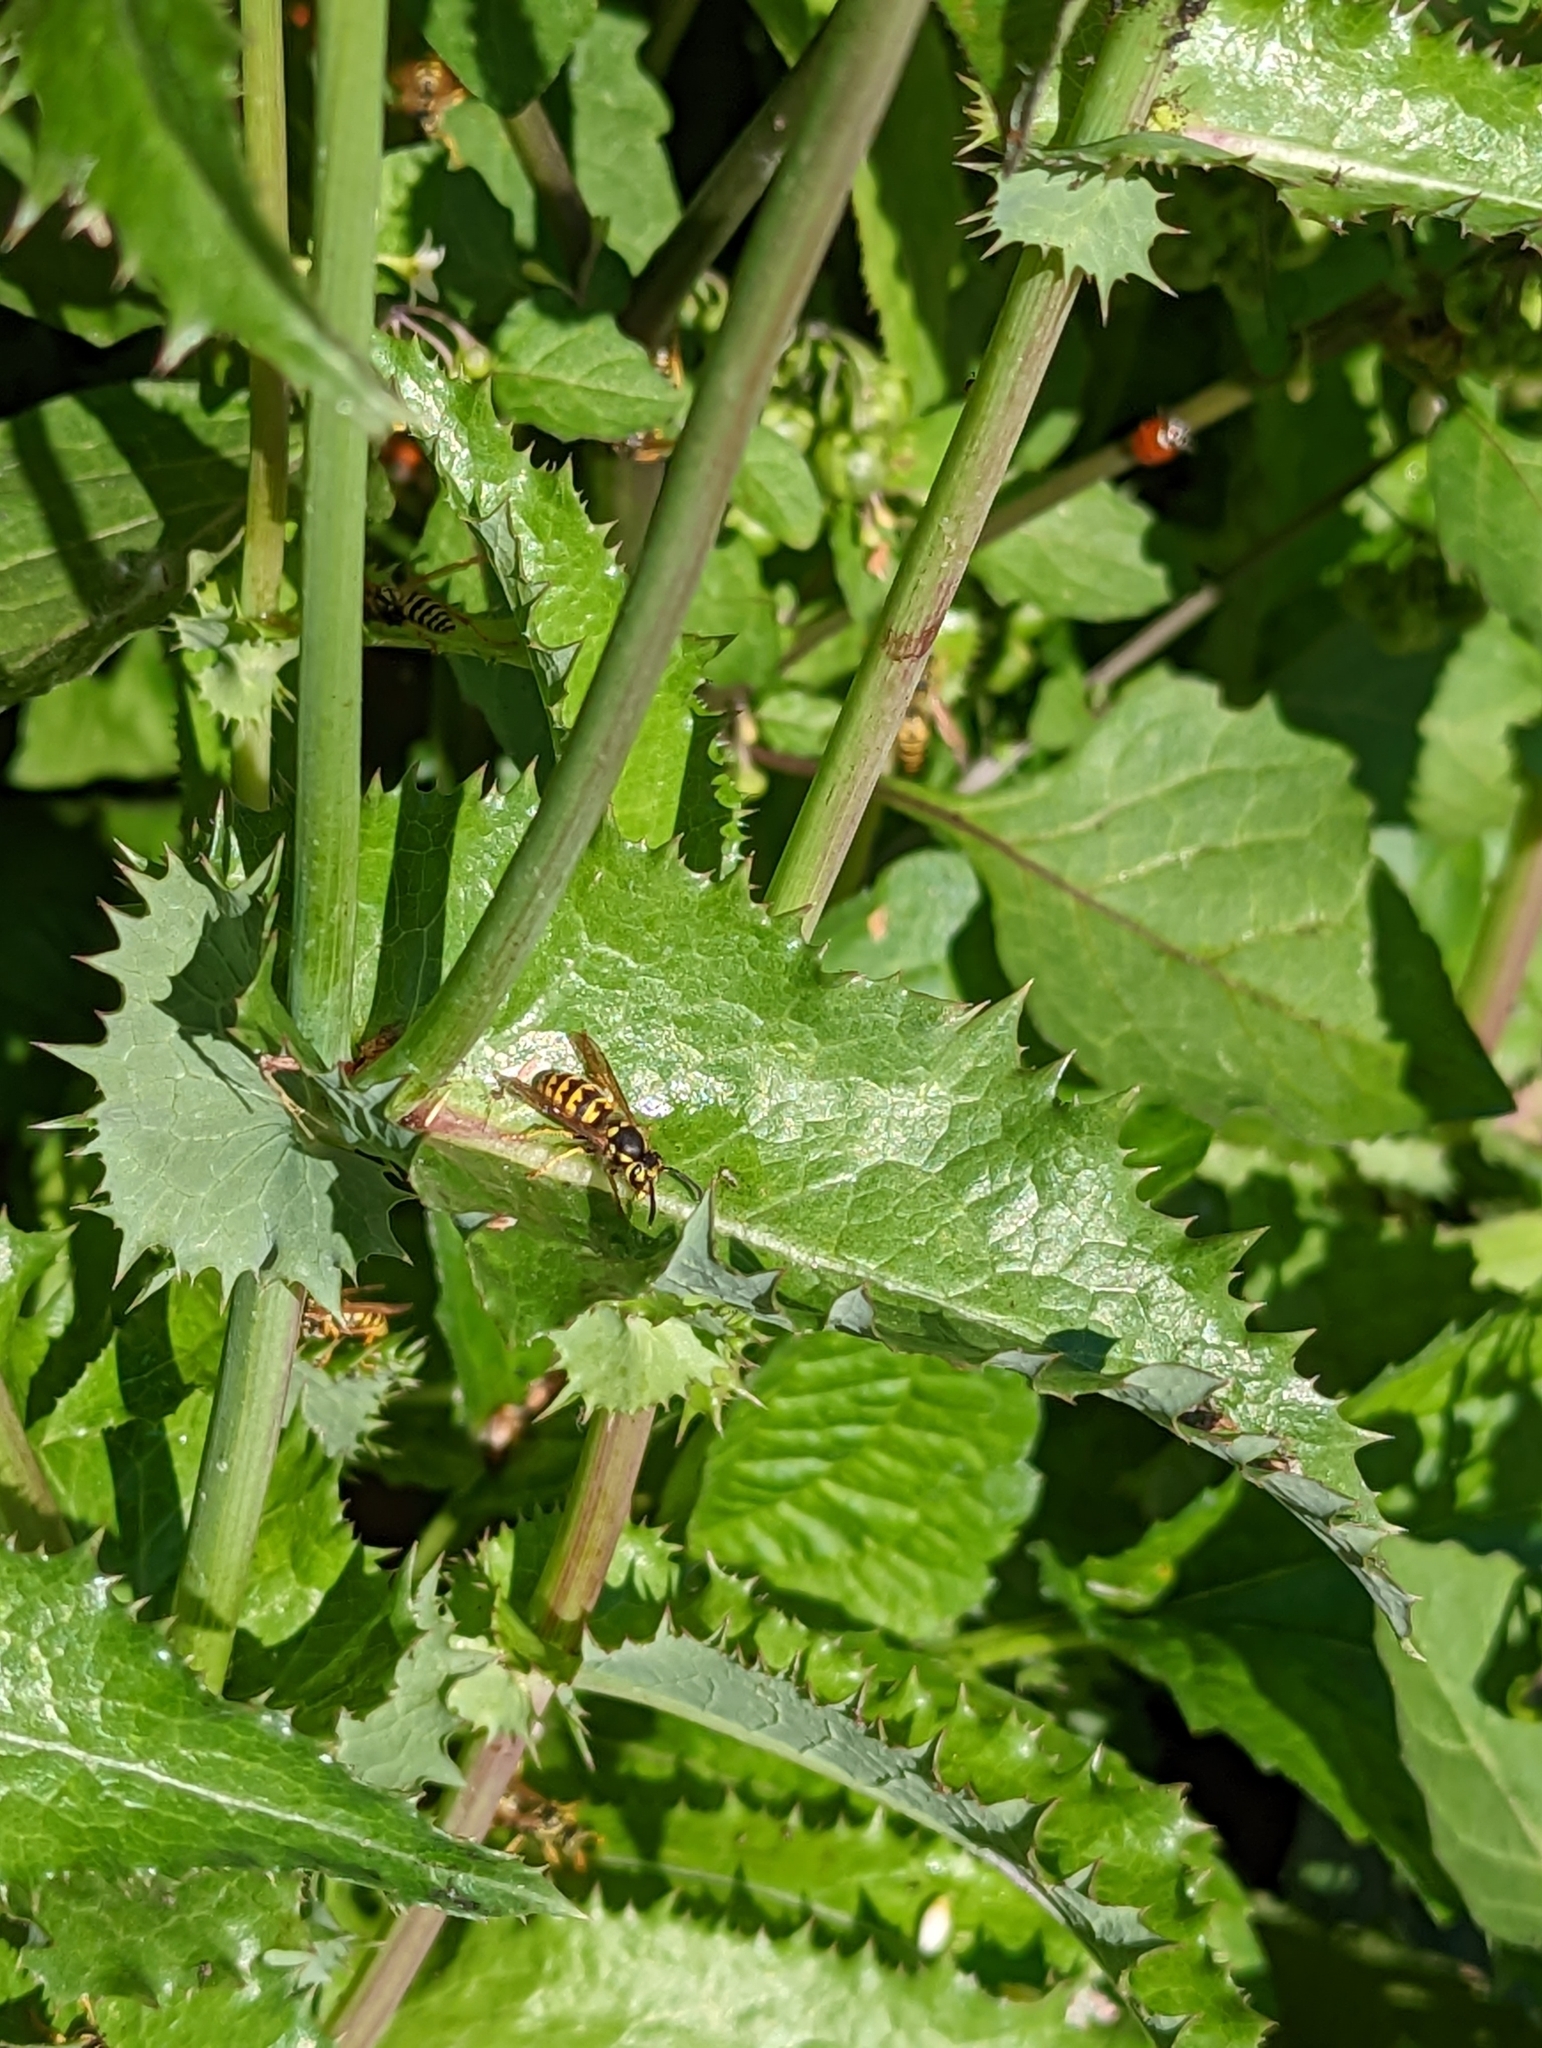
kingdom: Animalia
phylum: Arthropoda
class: Insecta
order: Hymenoptera
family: Vespidae
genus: Vespula
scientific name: Vespula pensylvanica
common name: Western yellowjacket
